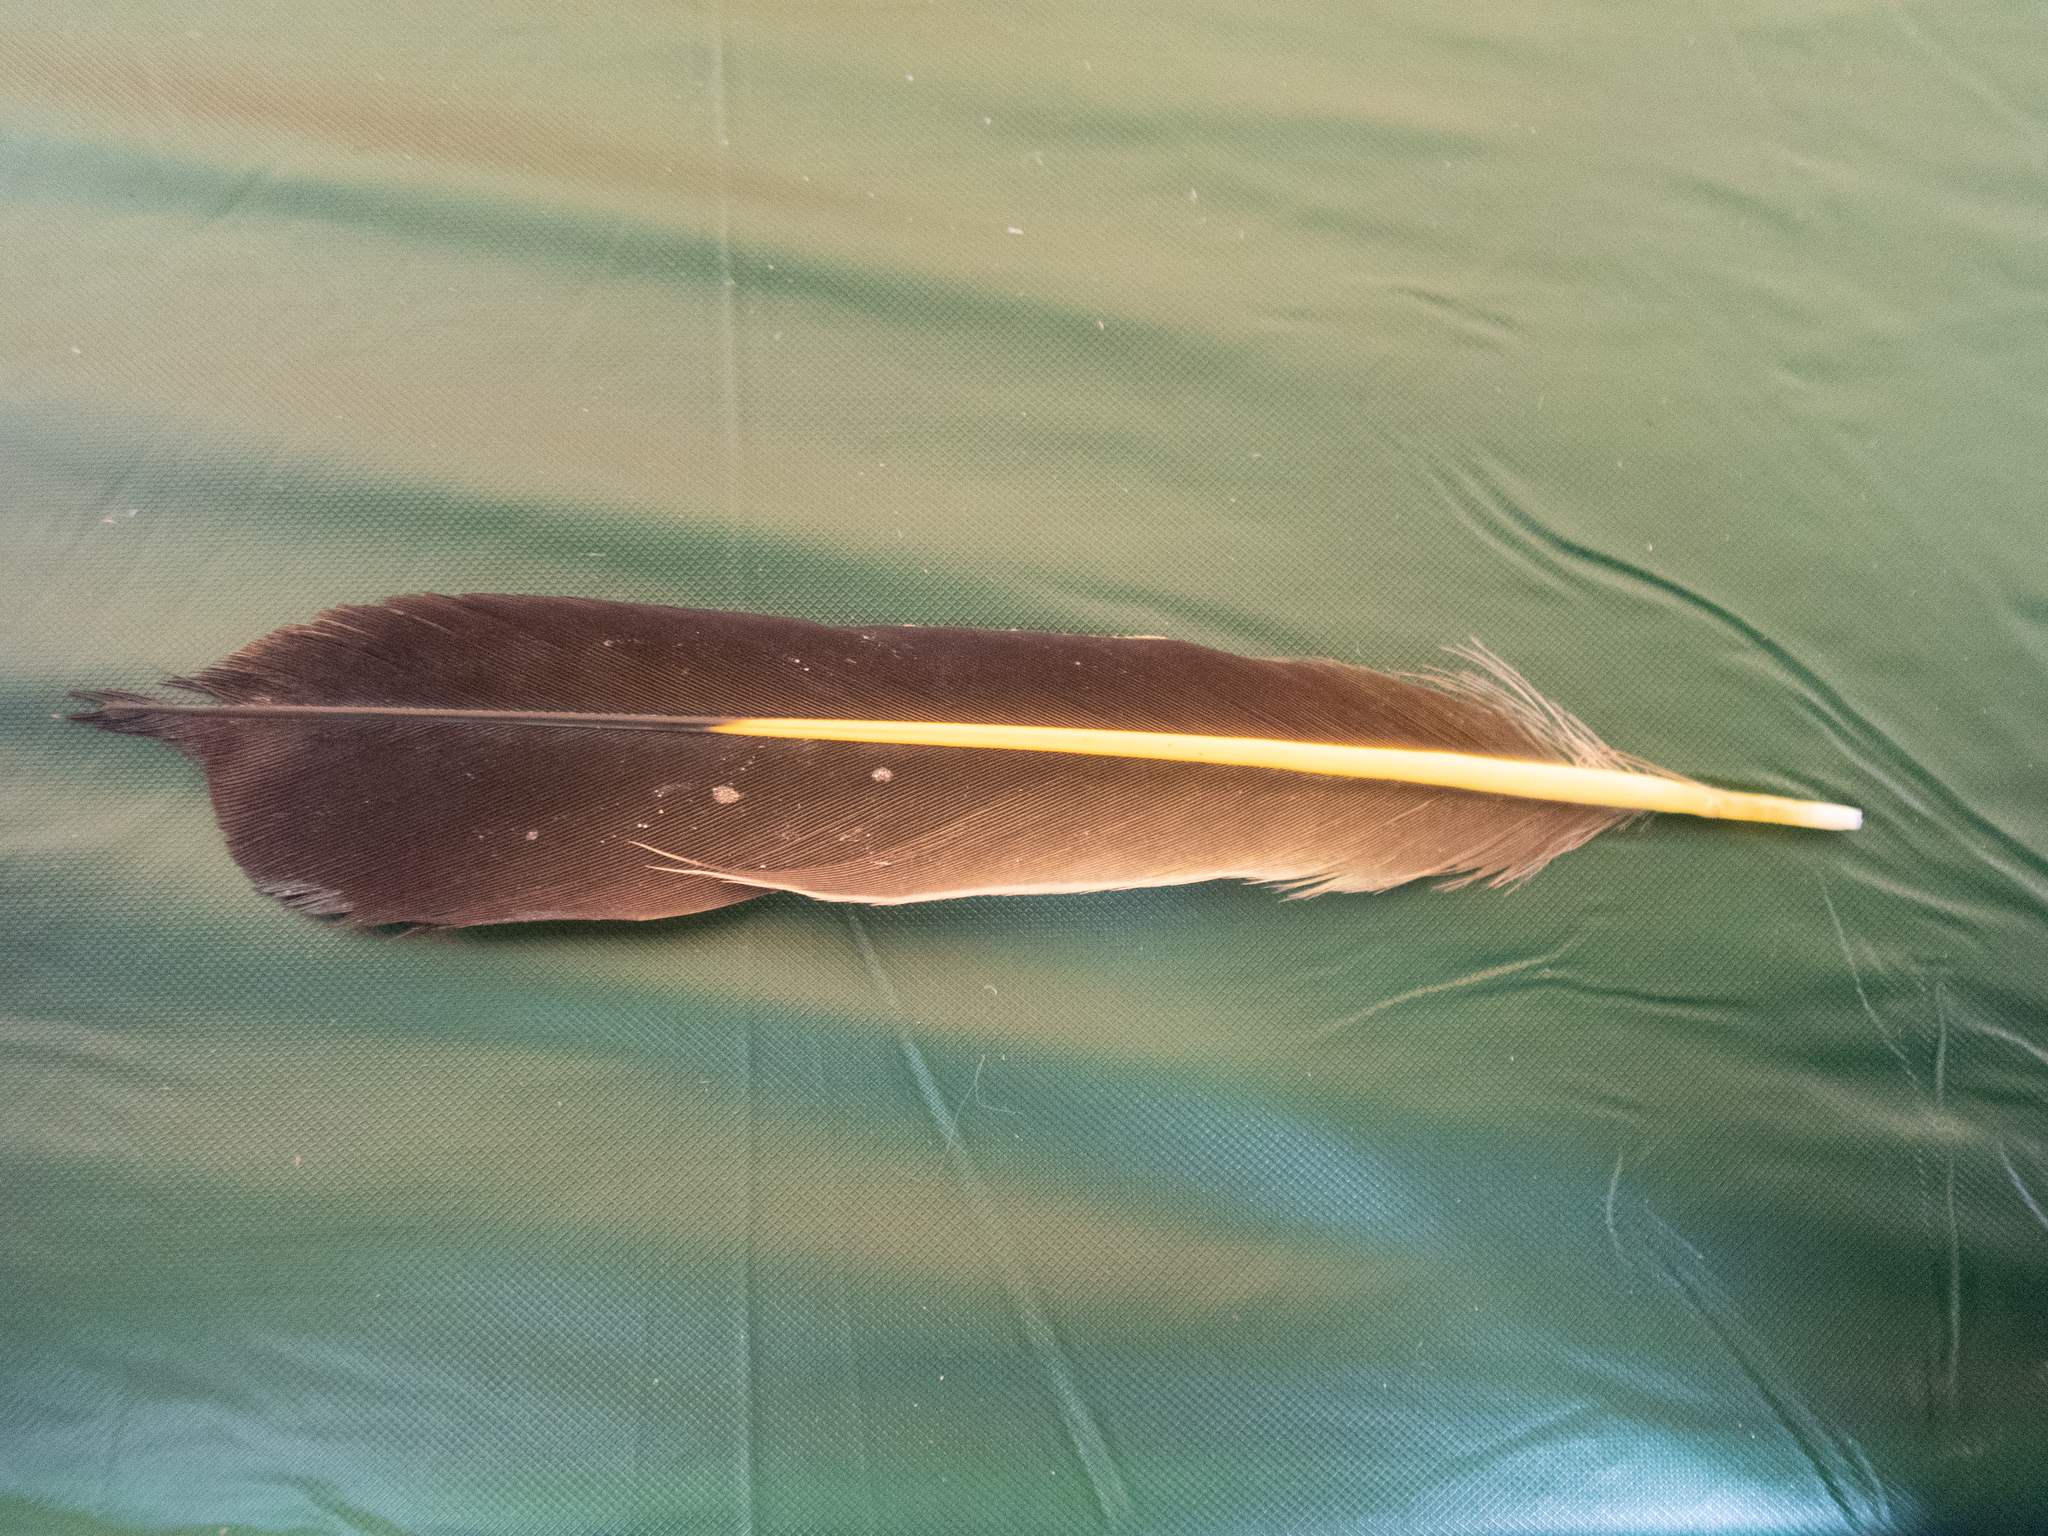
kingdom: Animalia
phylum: Chordata
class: Aves
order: Piciformes
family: Picidae
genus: Colaptes
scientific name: Colaptes auratus
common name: Northern flicker
